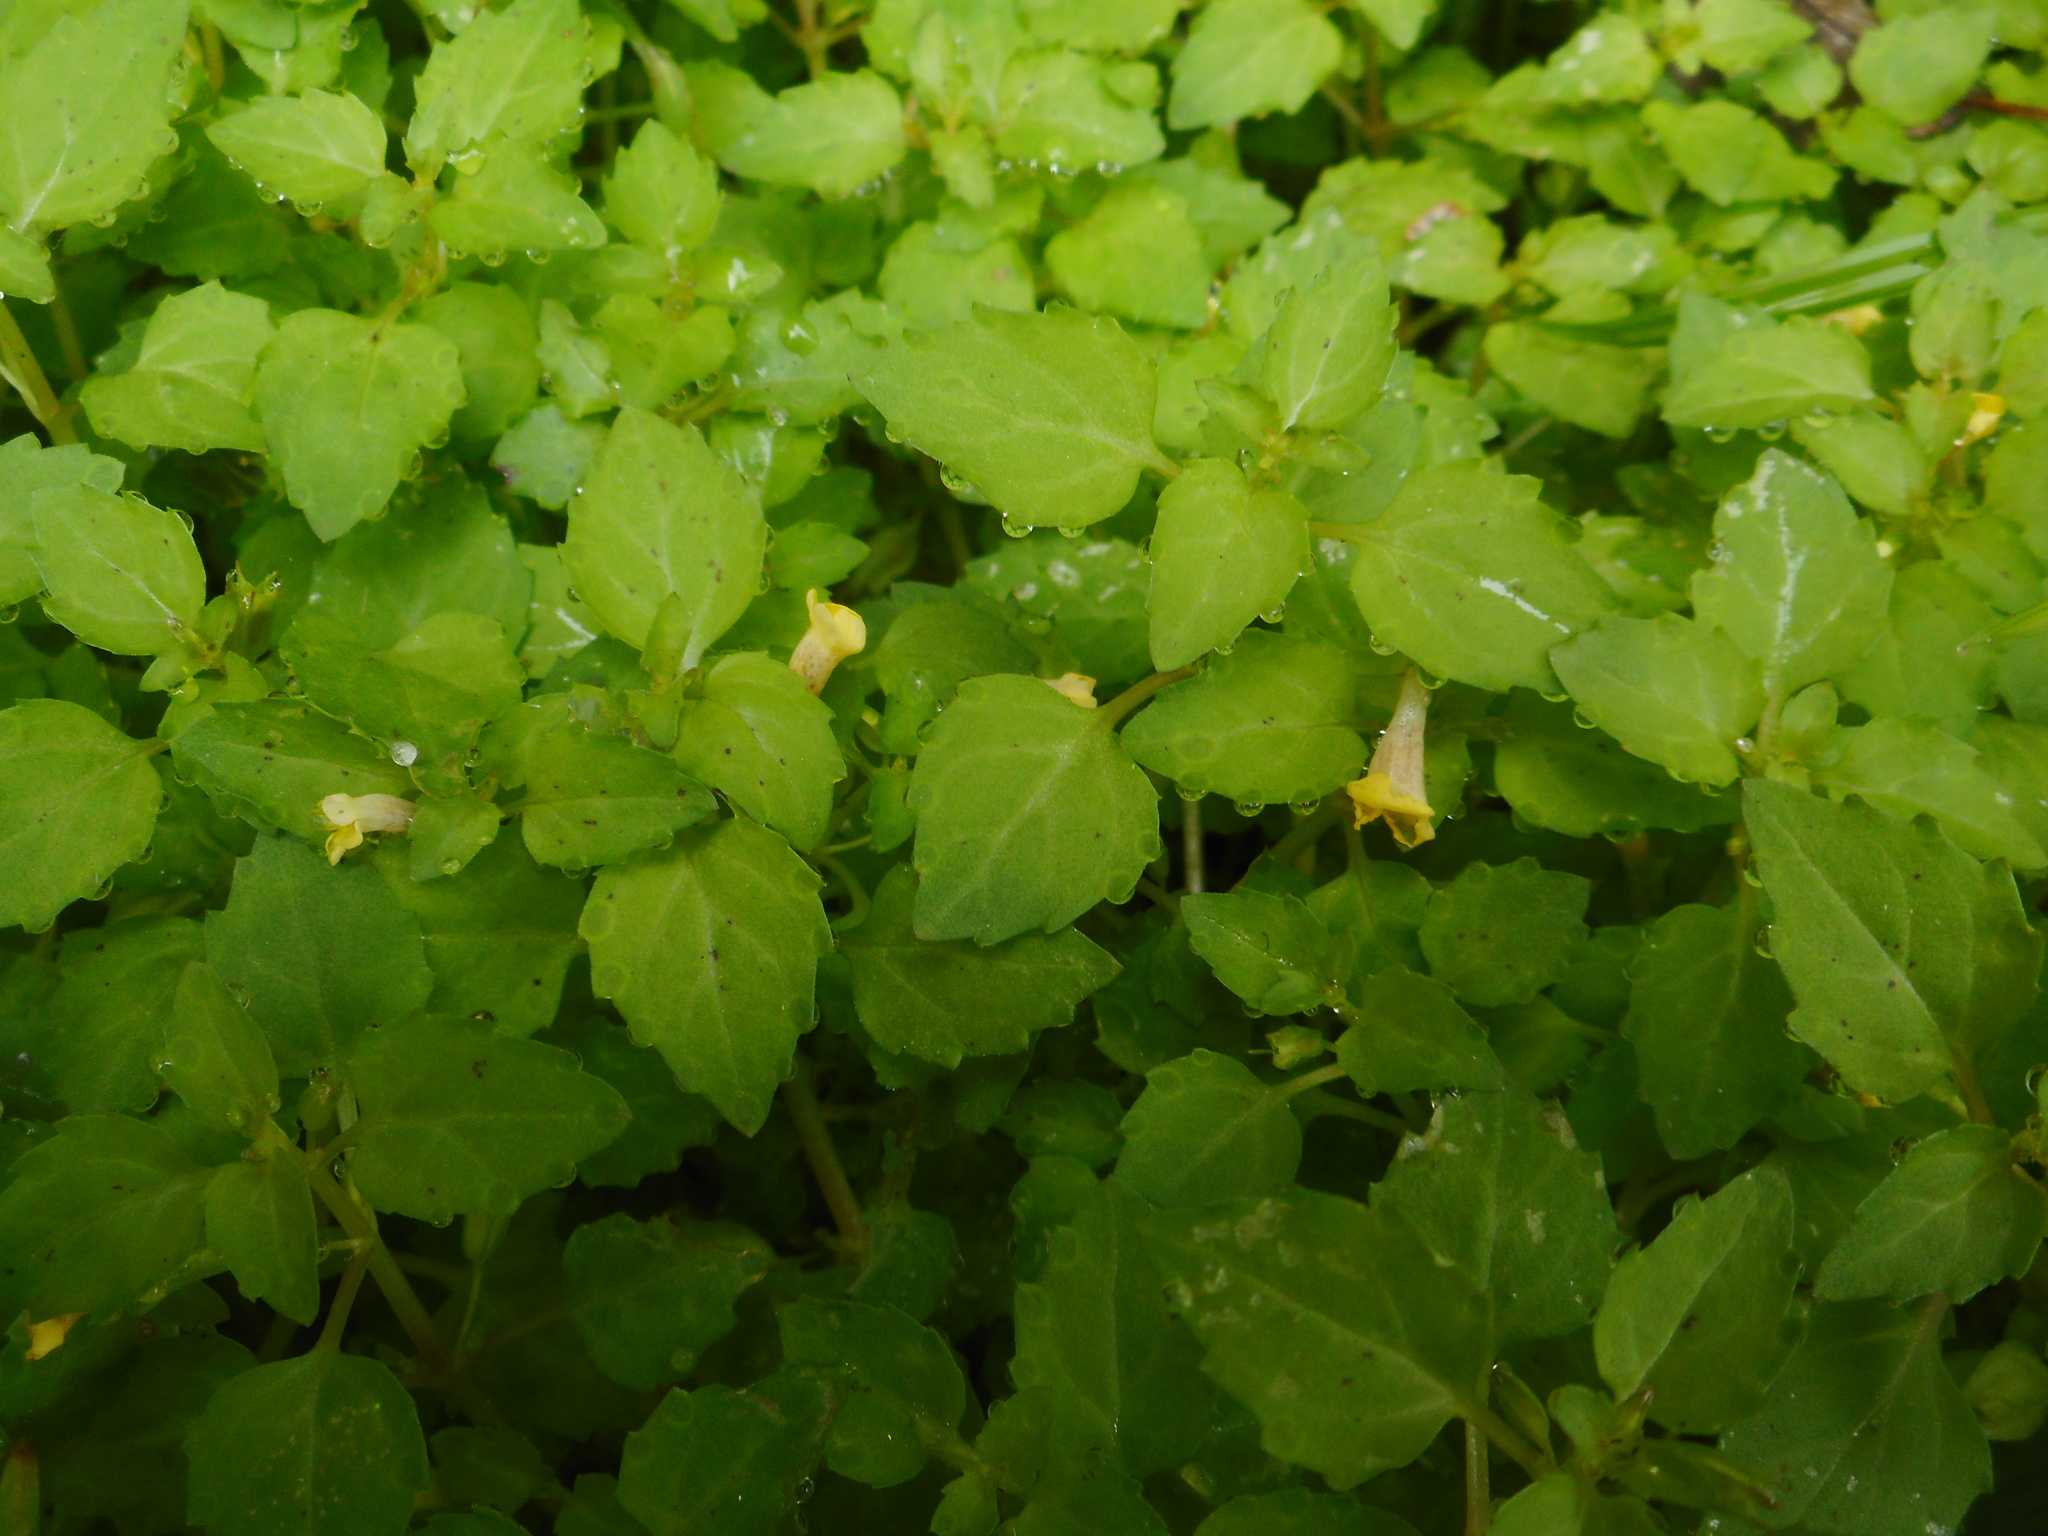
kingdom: Plantae
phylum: Tracheophyta
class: Magnoliopsida
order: Lamiales
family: Phrymaceae
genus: Erythranthe
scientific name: Erythranthe tenella
